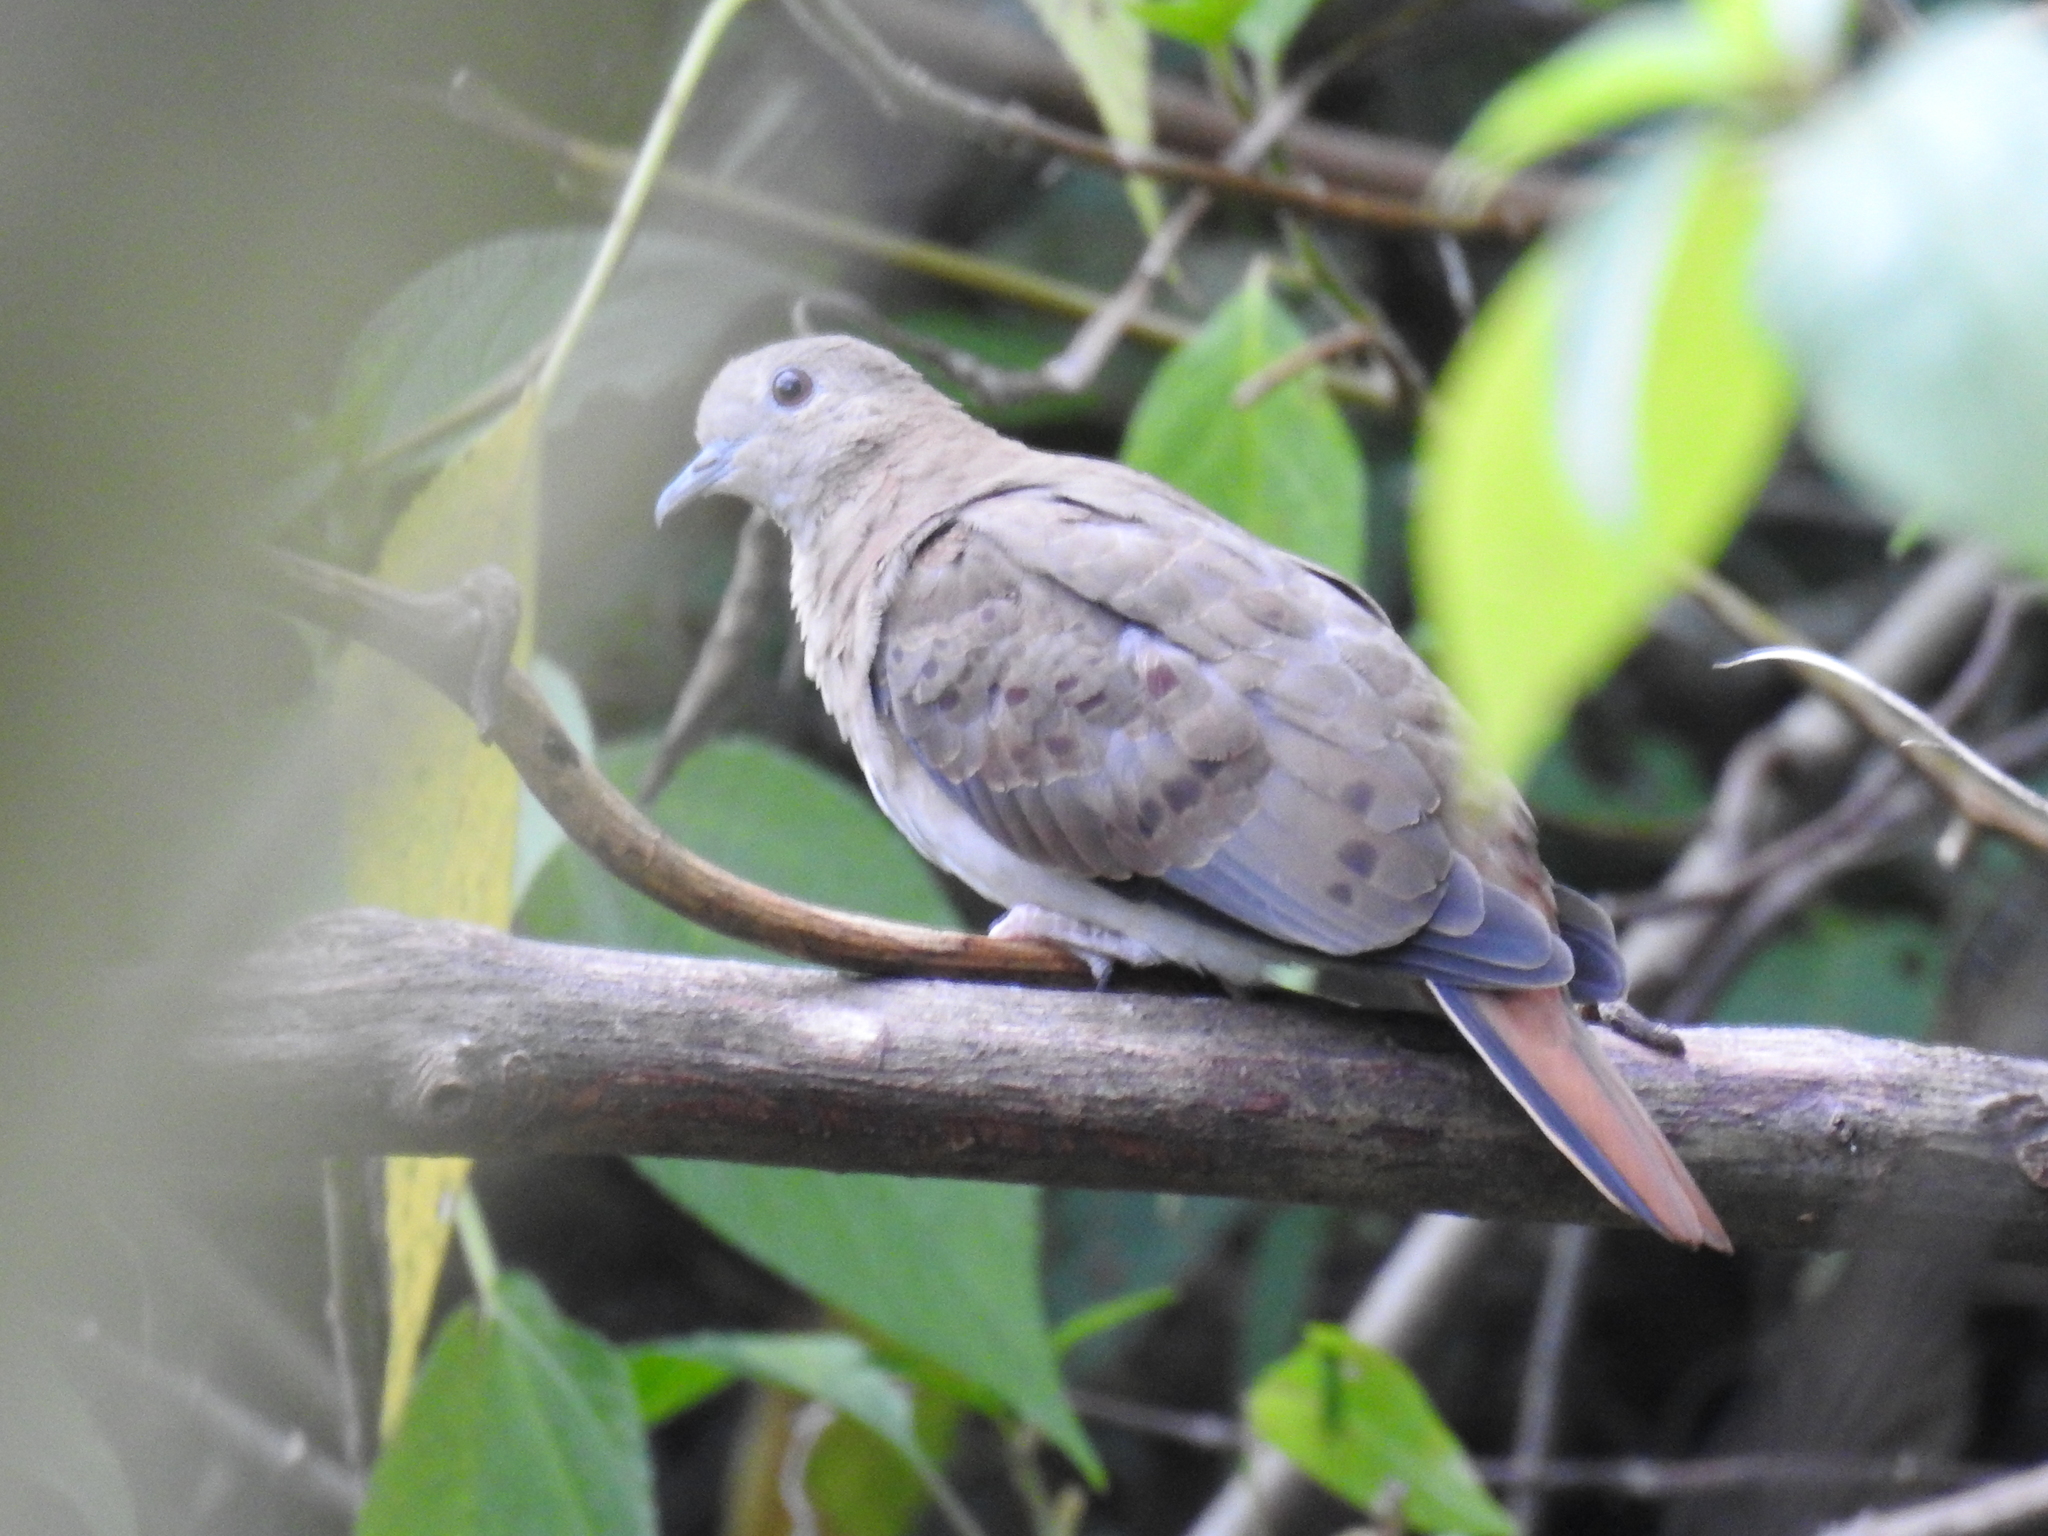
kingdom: Animalia
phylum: Chordata
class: Aves
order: Columbiformes
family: Columbidae
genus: Claravis
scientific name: Claravis pretiosa
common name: Blue ground-dove
